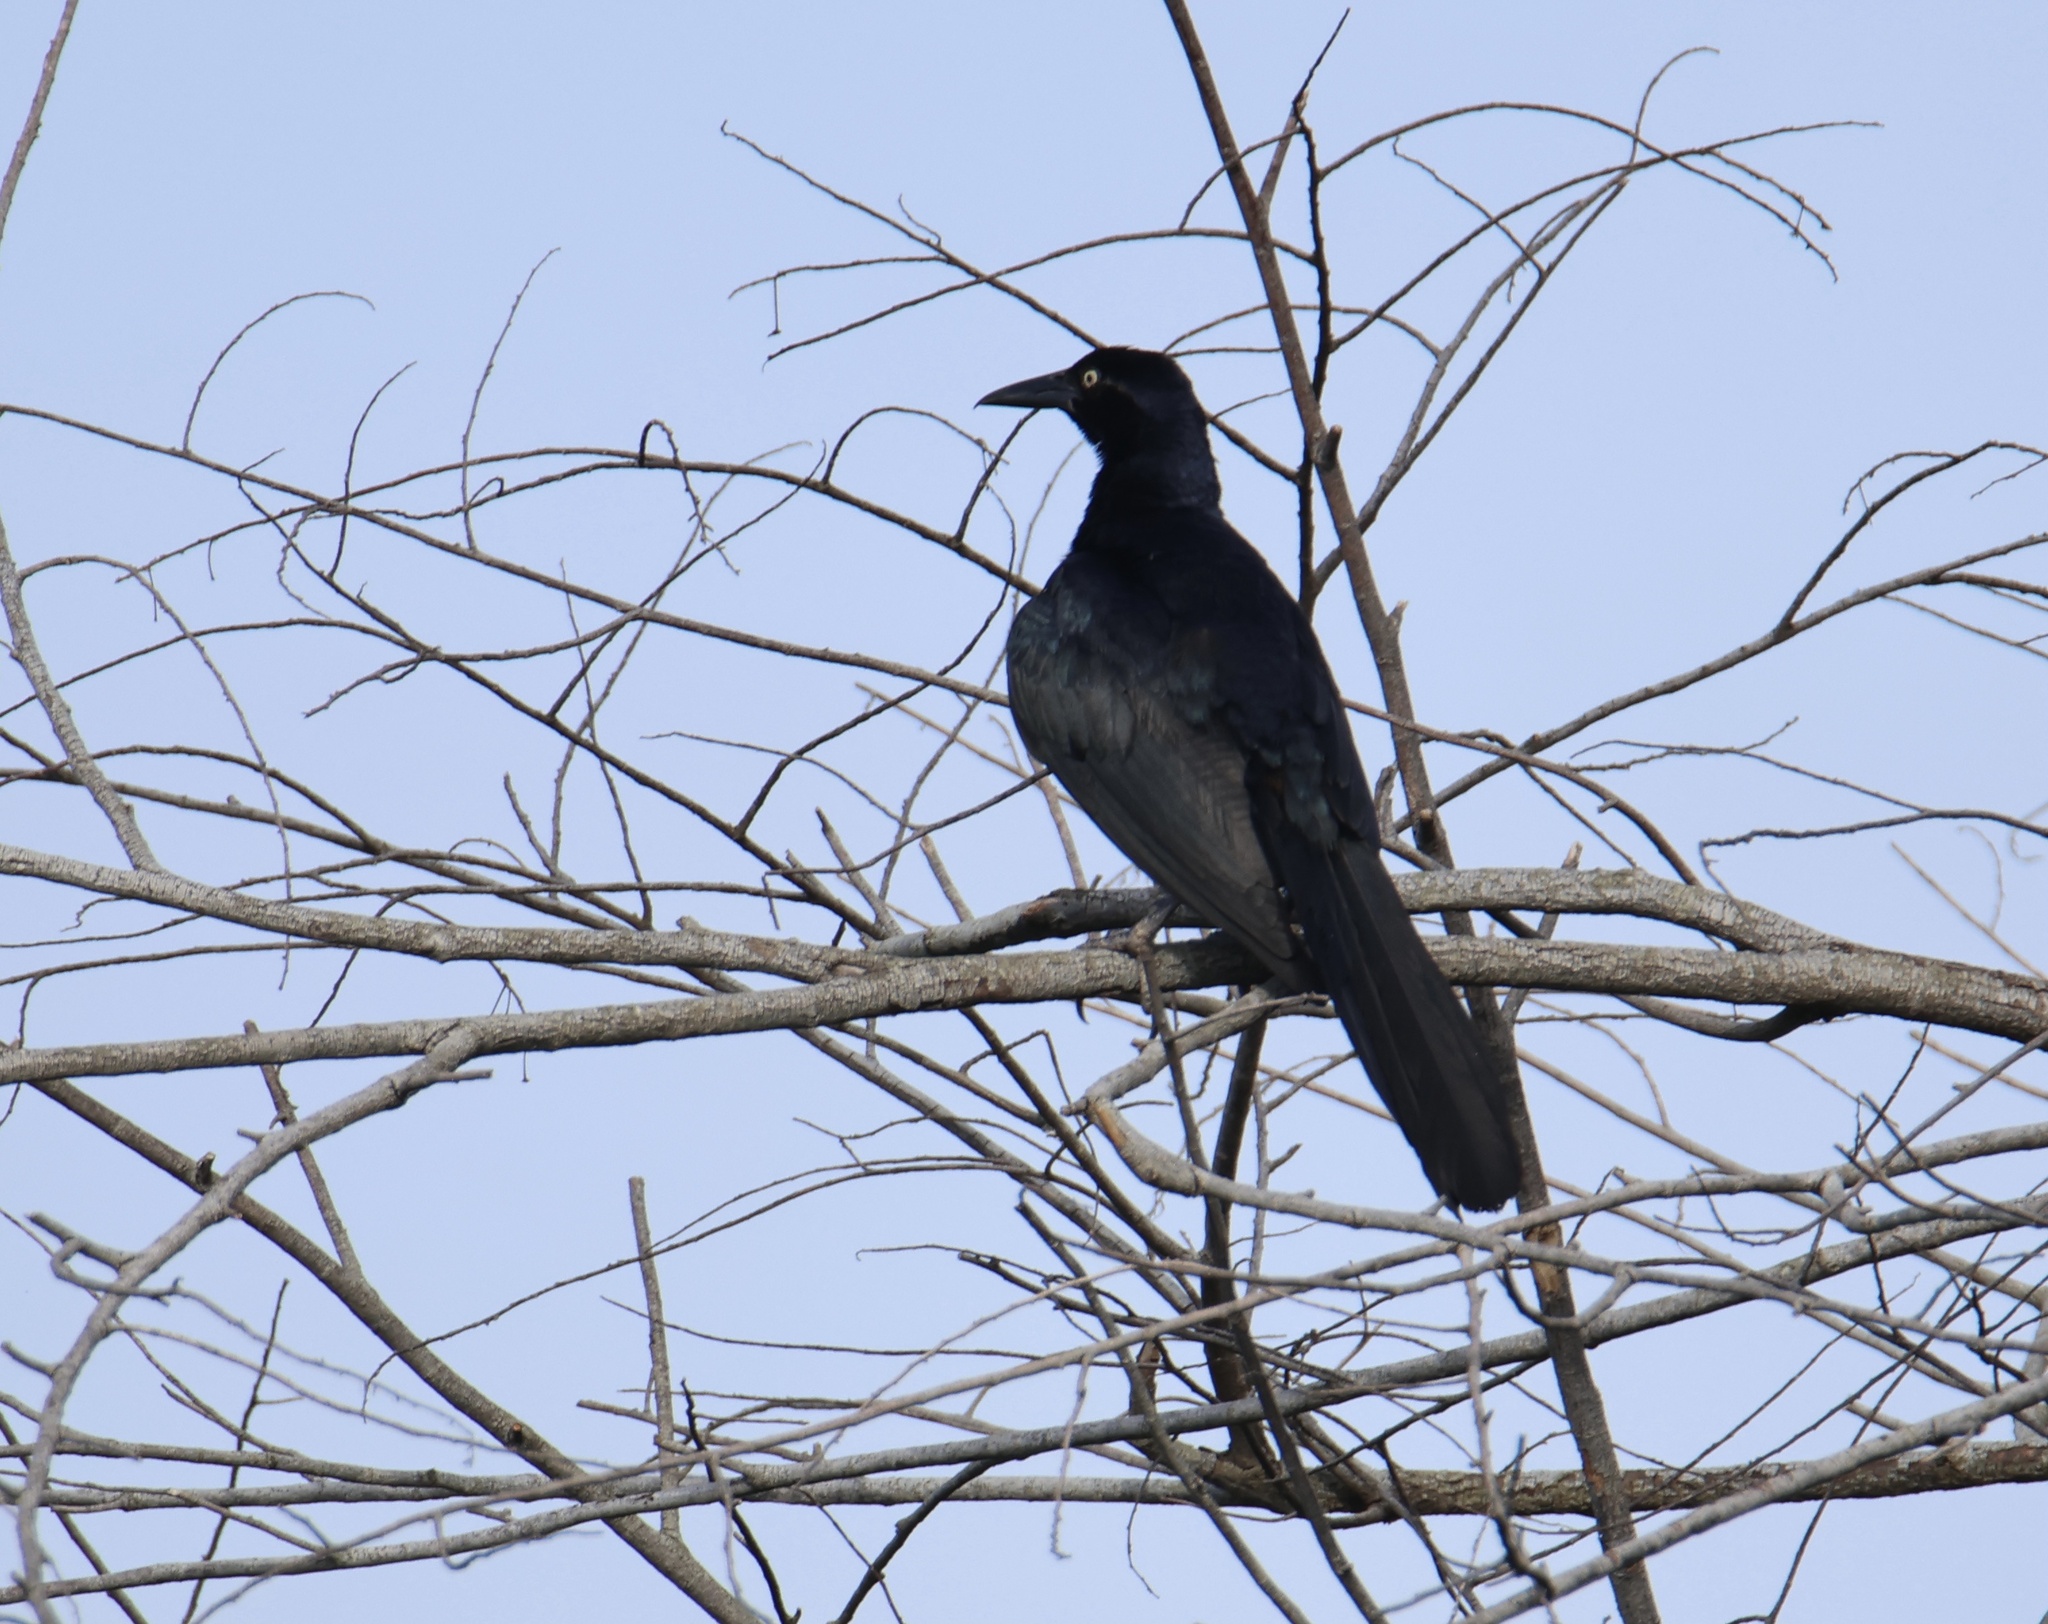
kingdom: Animalia
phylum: Chordata
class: Aves
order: Passeriformes
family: Icteridae
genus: Quiscalus
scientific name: Quiscalus mexicanus
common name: Great-tailed grackle
